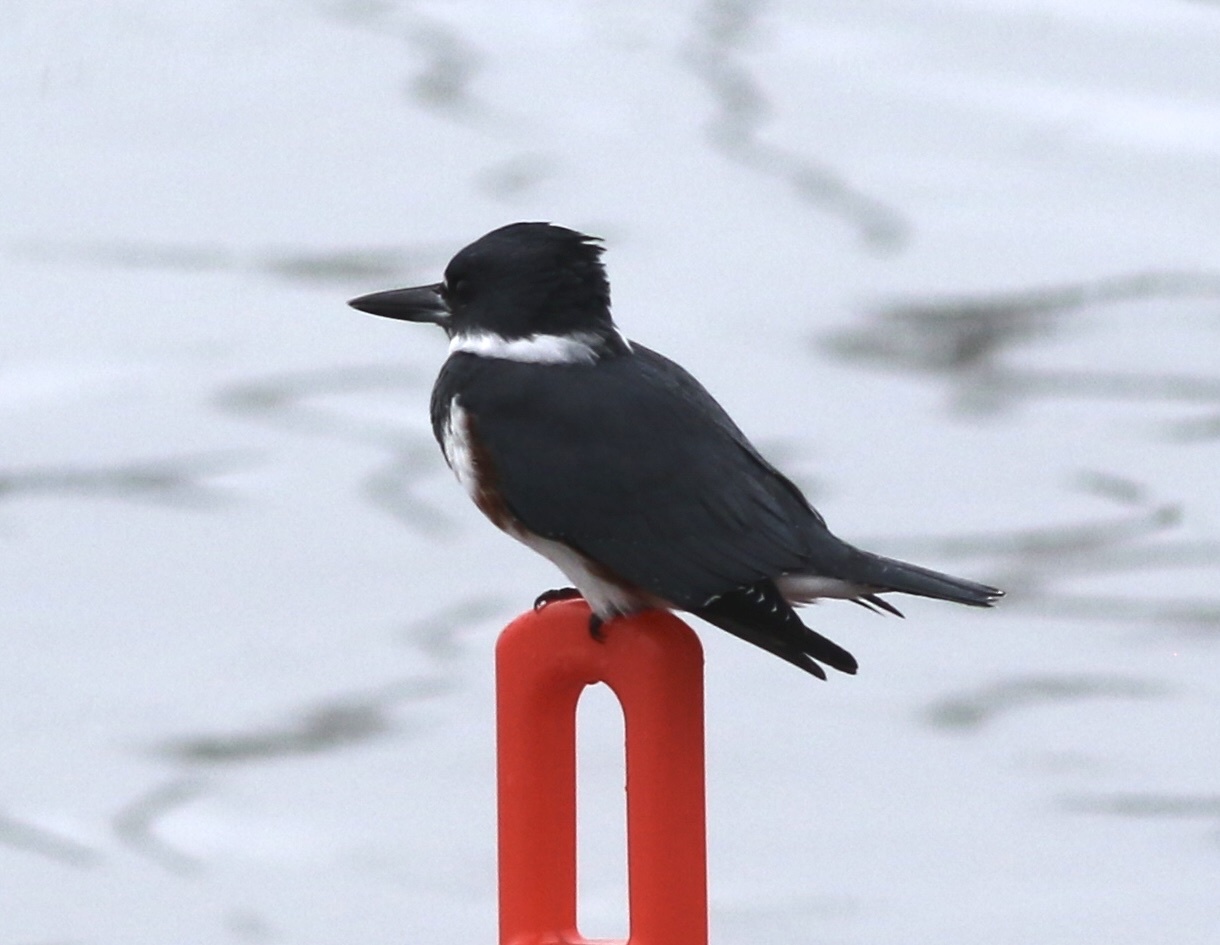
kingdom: Animalia
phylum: Chordata
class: Aves
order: Coraciiformes
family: Alcedinidae
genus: Megaceryle
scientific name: Megaceryle alcyon
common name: Belted kingfisher
